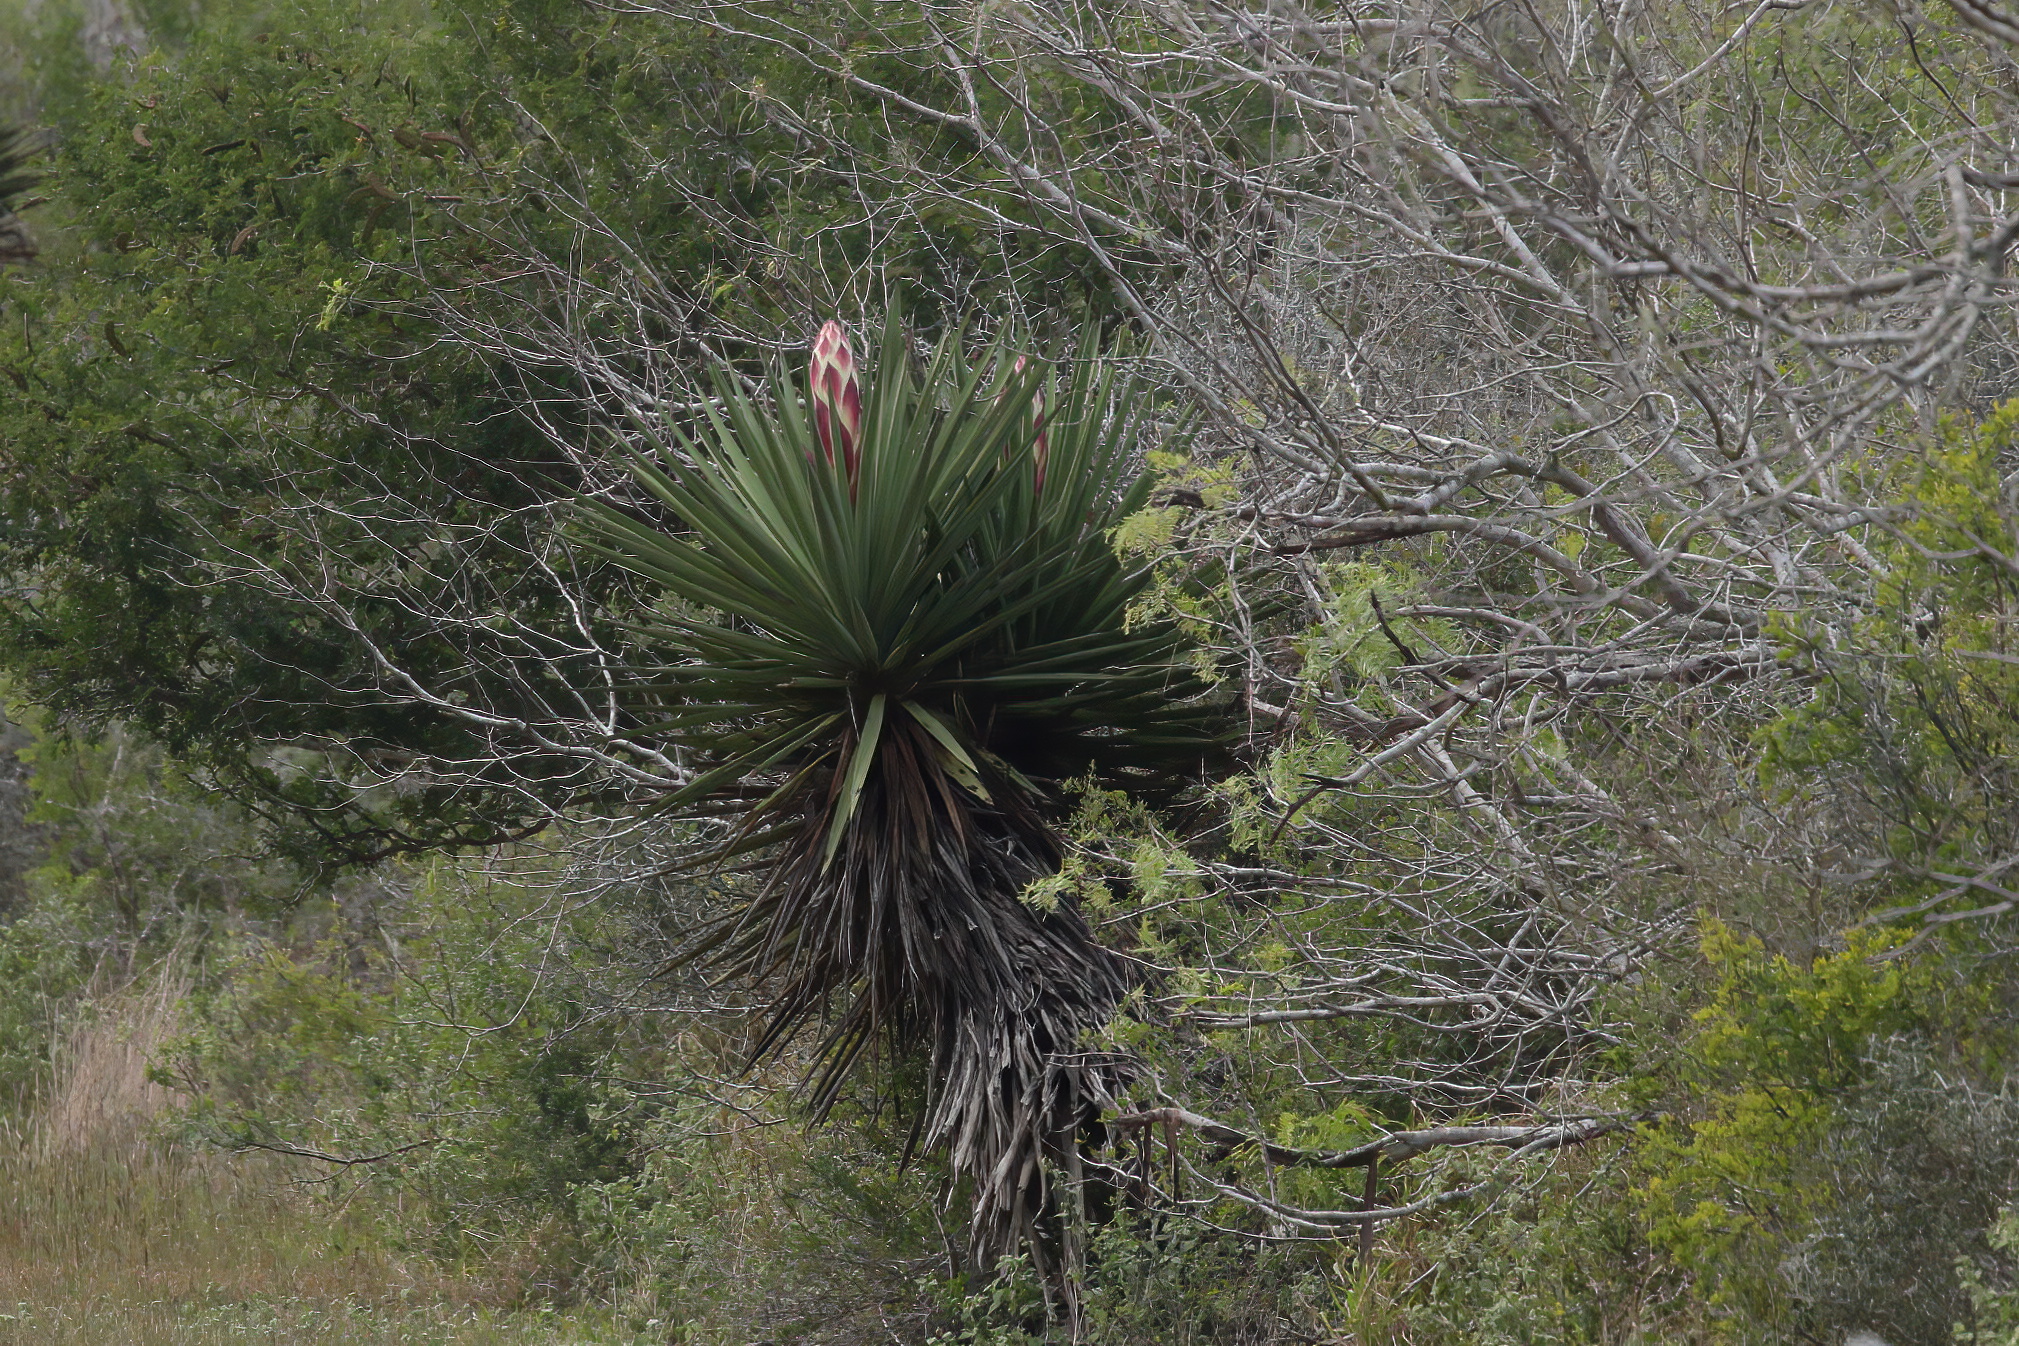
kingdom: Plantae
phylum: Tracheophyta
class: Liliopsida
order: Asparagales
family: Asparagaceae
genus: Yucca
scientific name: Yucca treculiana
